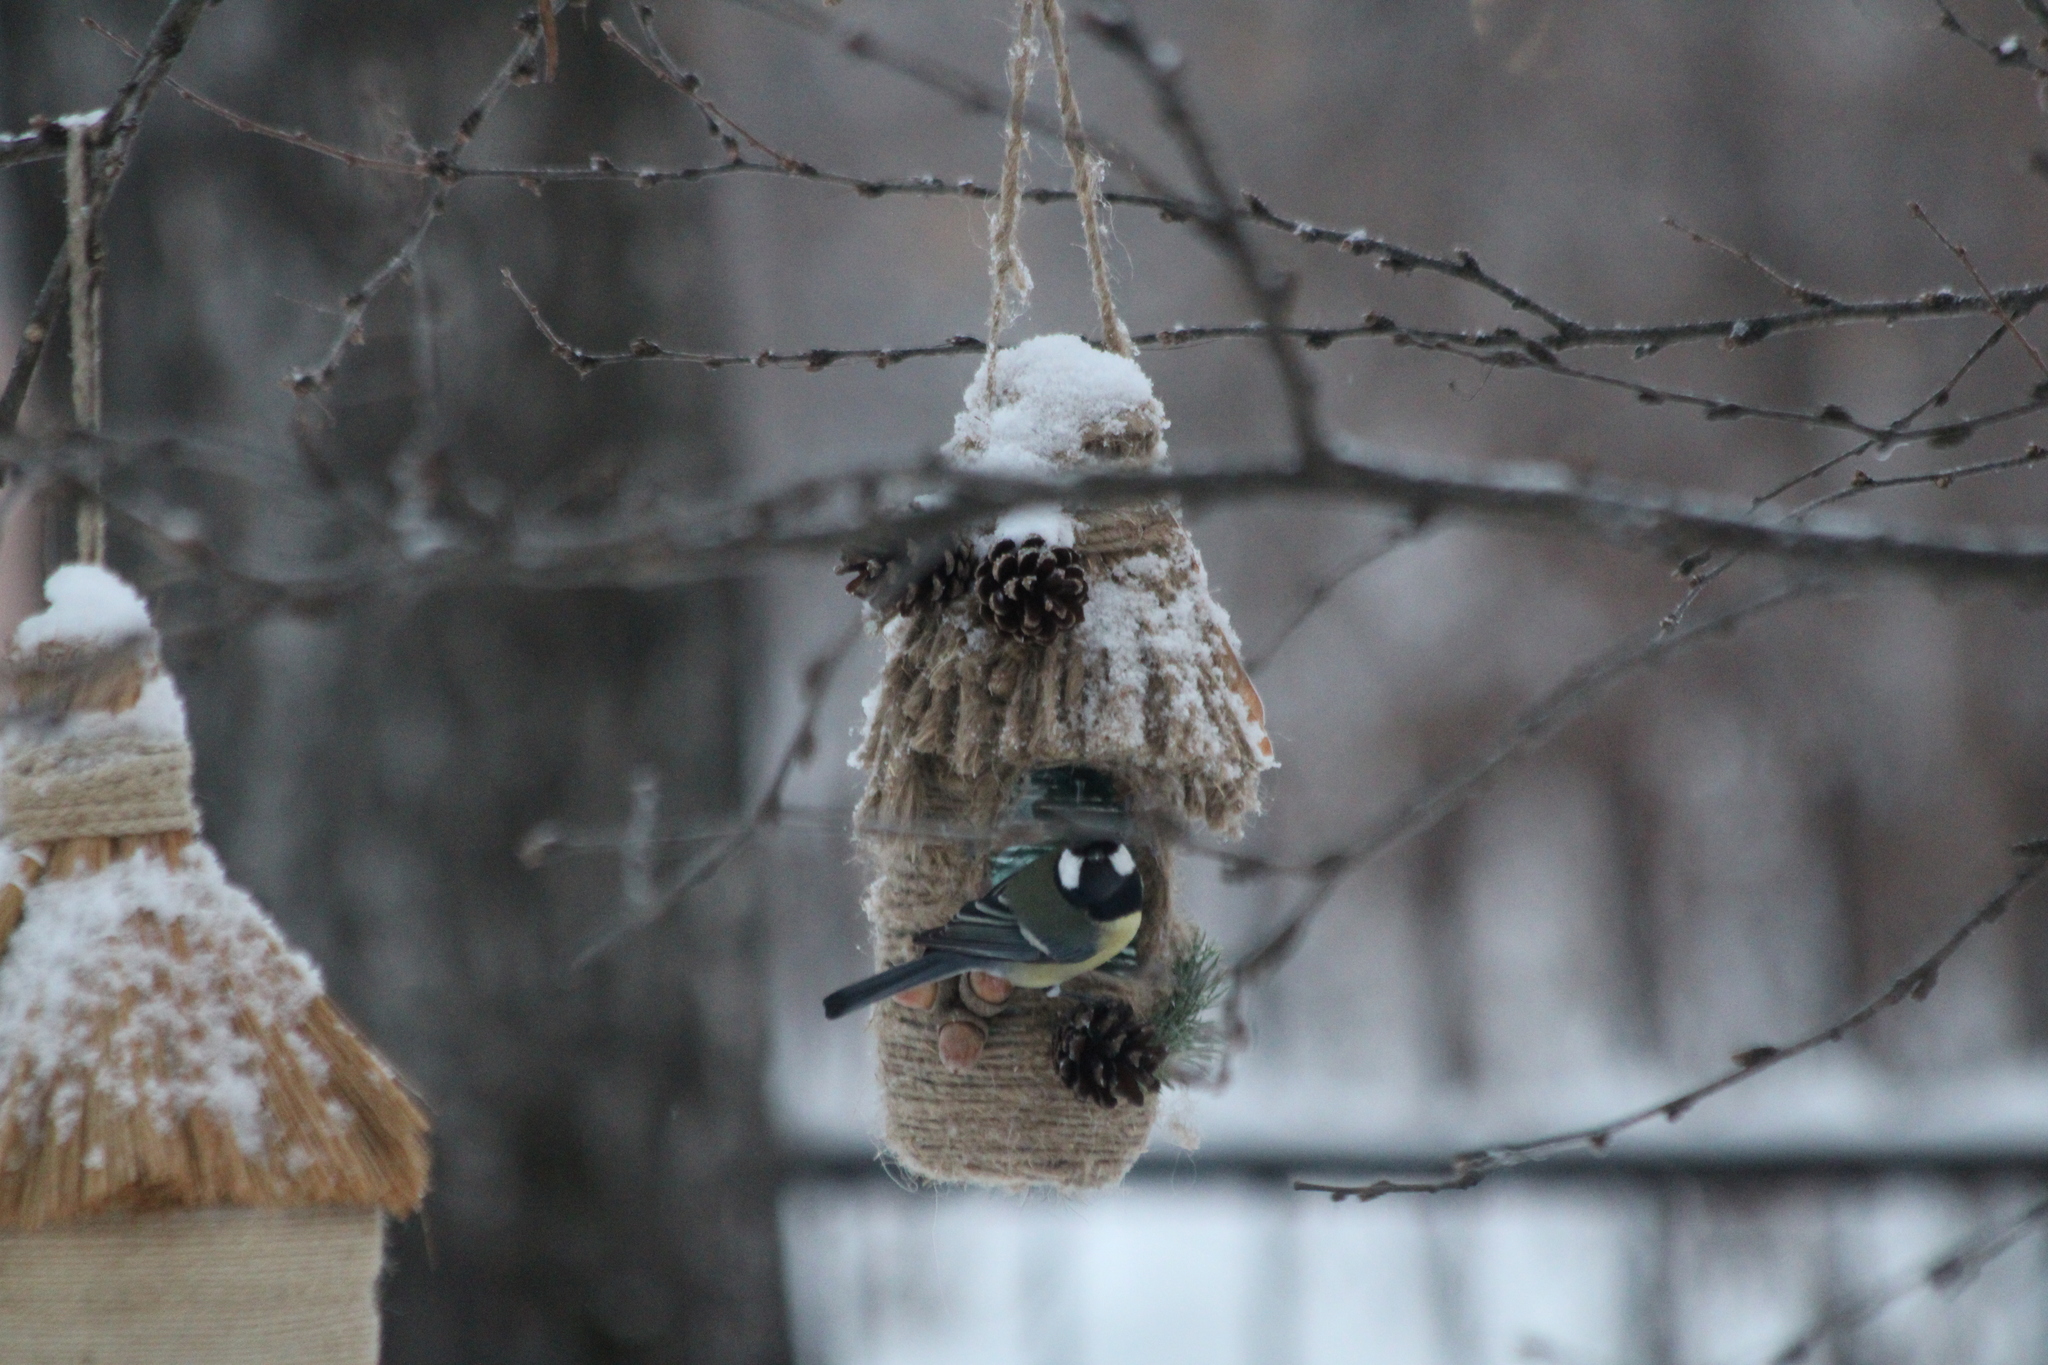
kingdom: Animalia
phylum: Chordata
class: Aves
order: Passeriformes
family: Paridae
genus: Parus
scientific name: Parus major
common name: Great tit
